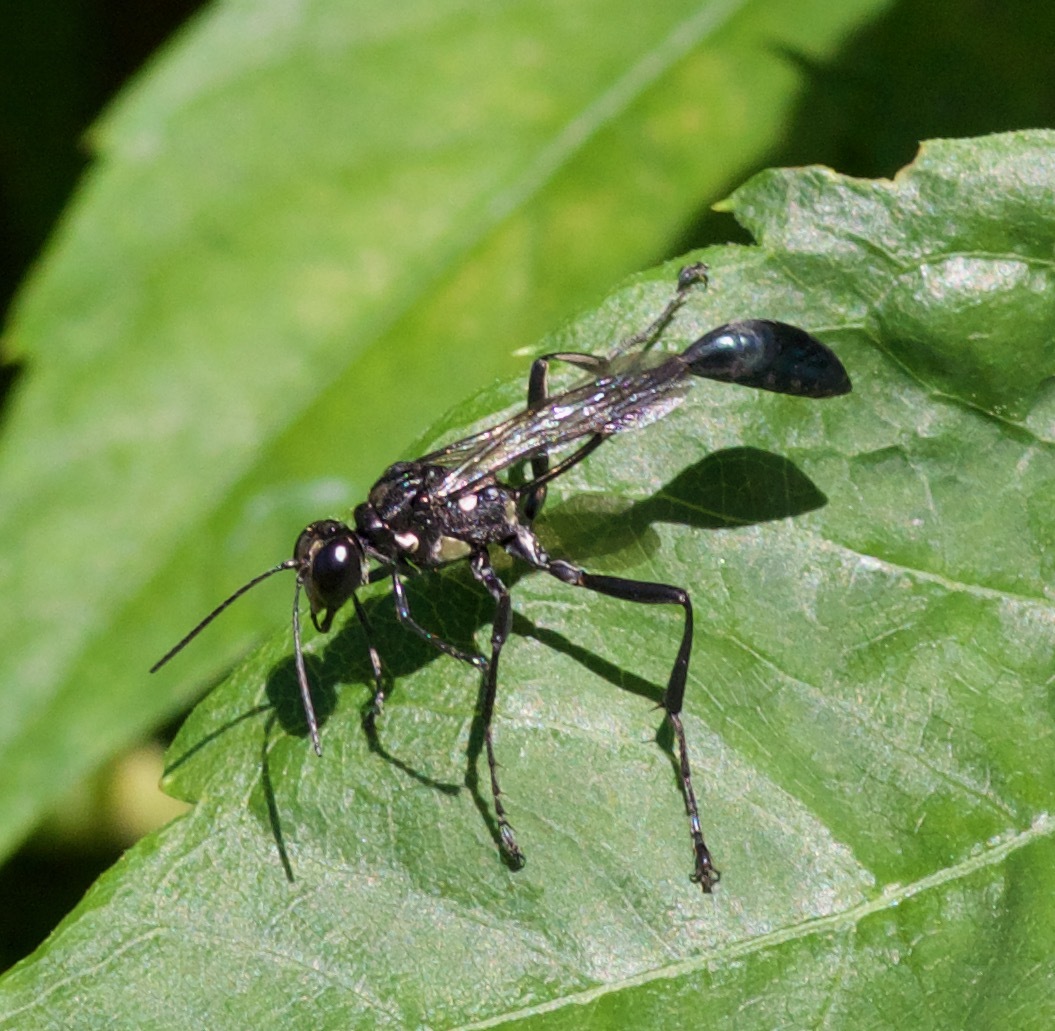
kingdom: Animalia
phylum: Arthropoda
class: Insecta
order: Hymenoptera
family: Sphecidae
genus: Eremnophila
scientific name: Eremnophila aureonotata
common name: Gold-marked thread-waisted wasp
